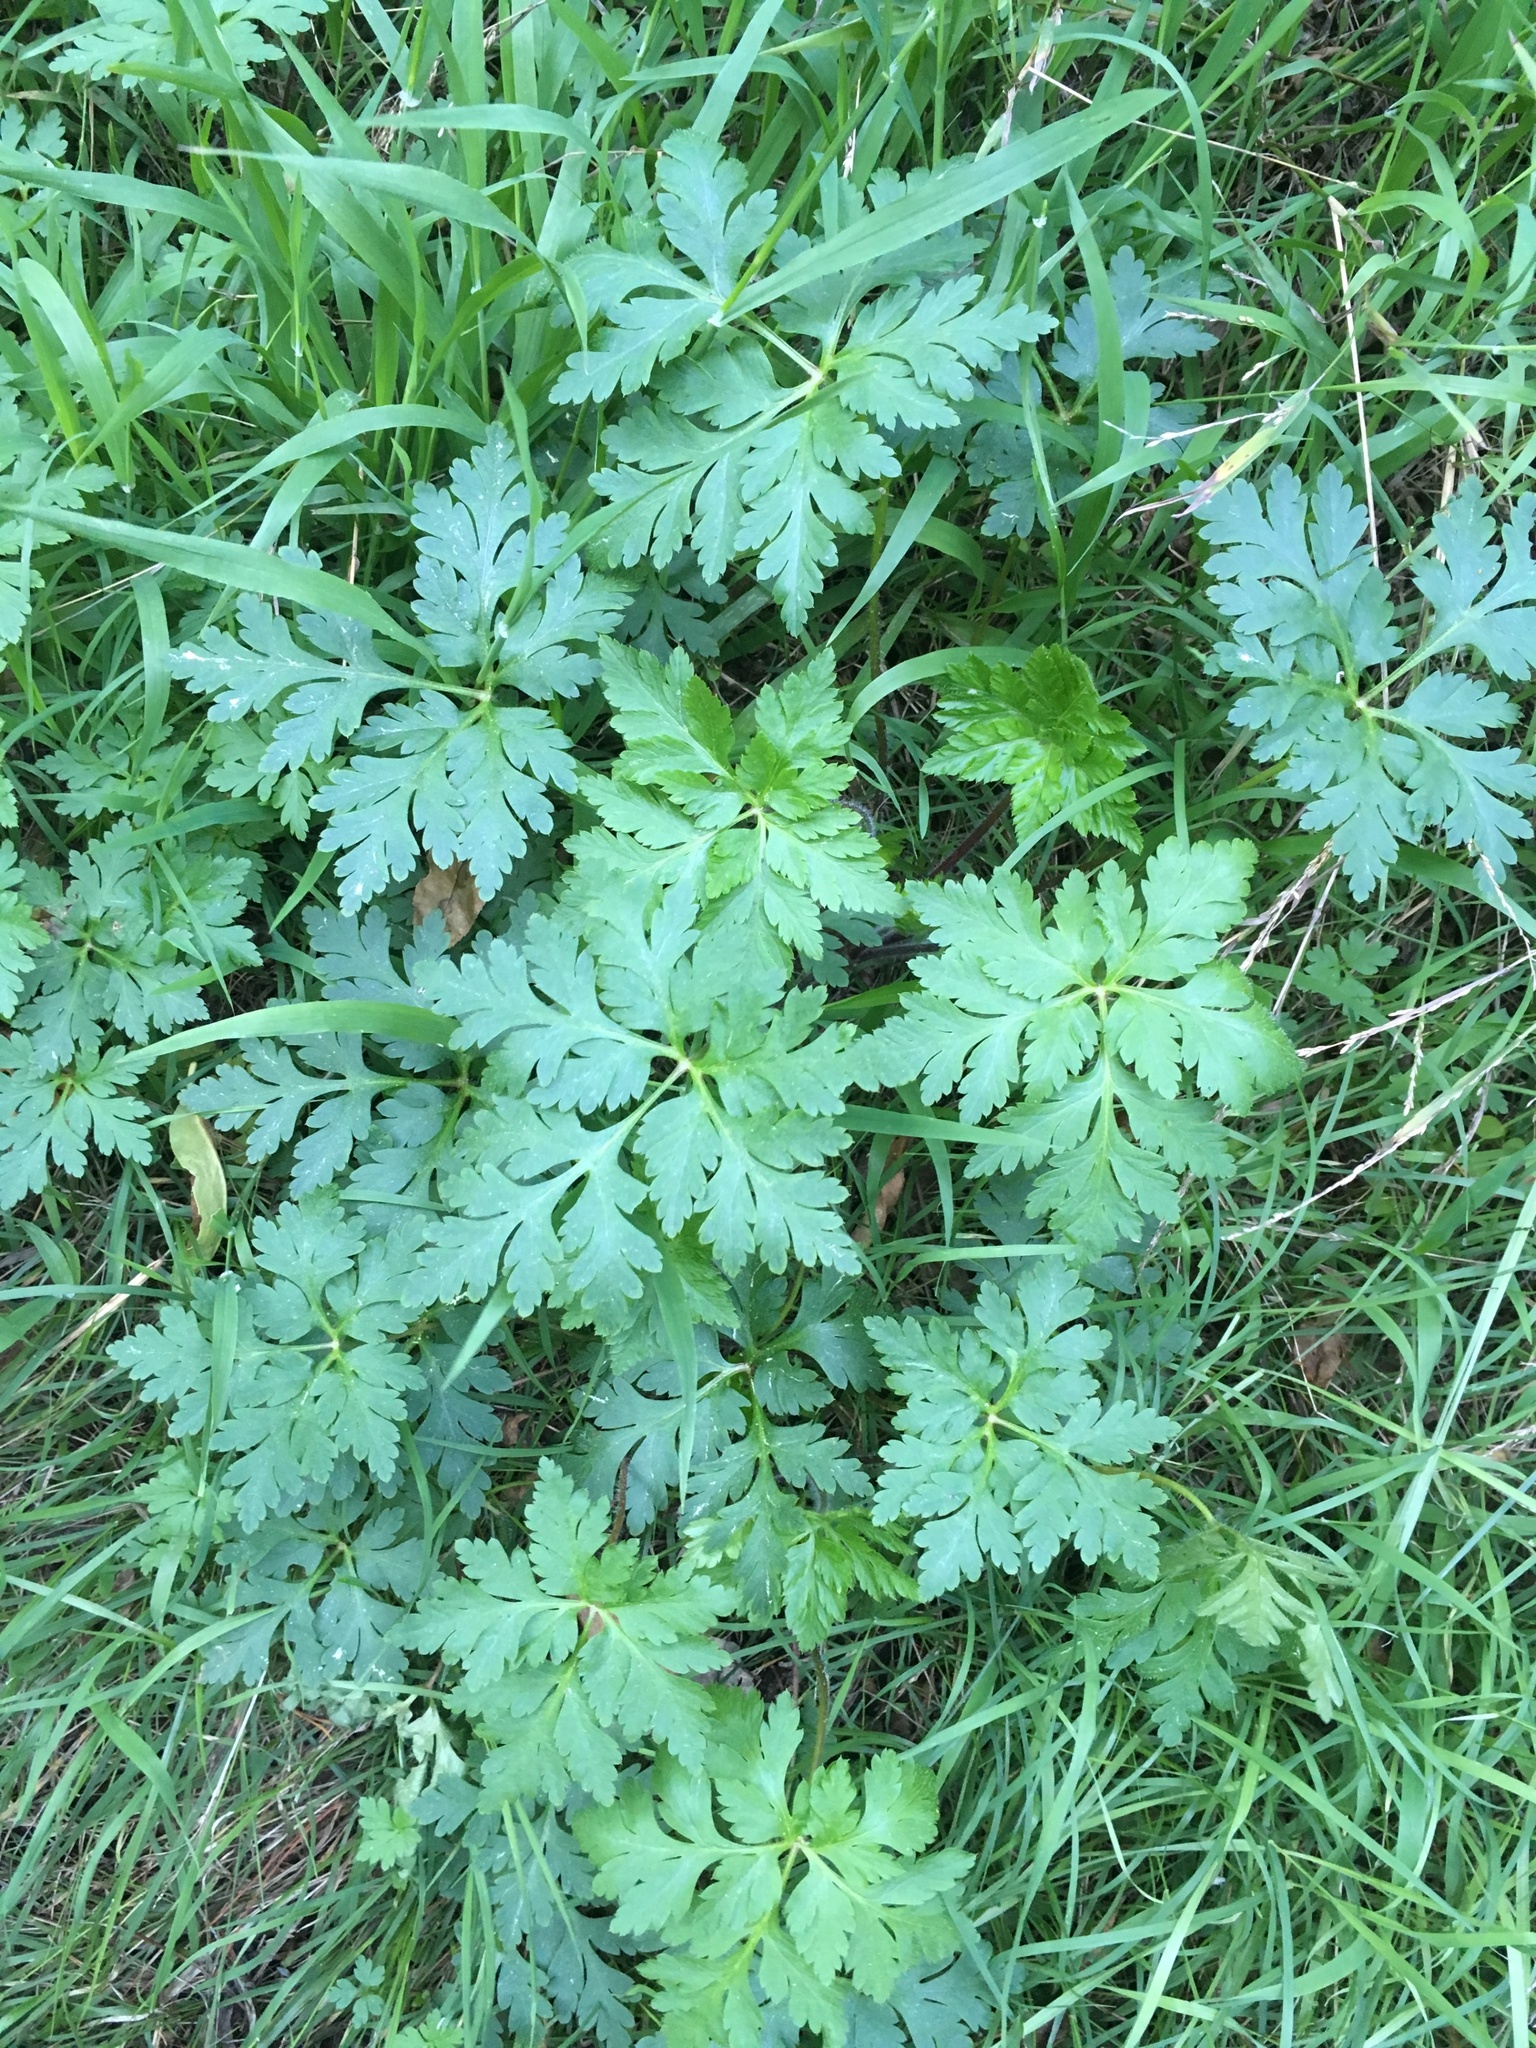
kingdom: Plantae
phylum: Tracheophyta
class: Magnoliopsida
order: Geraniales
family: Geraniaceae
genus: Geranium
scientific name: Geranium robertianum
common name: Herb-robert
